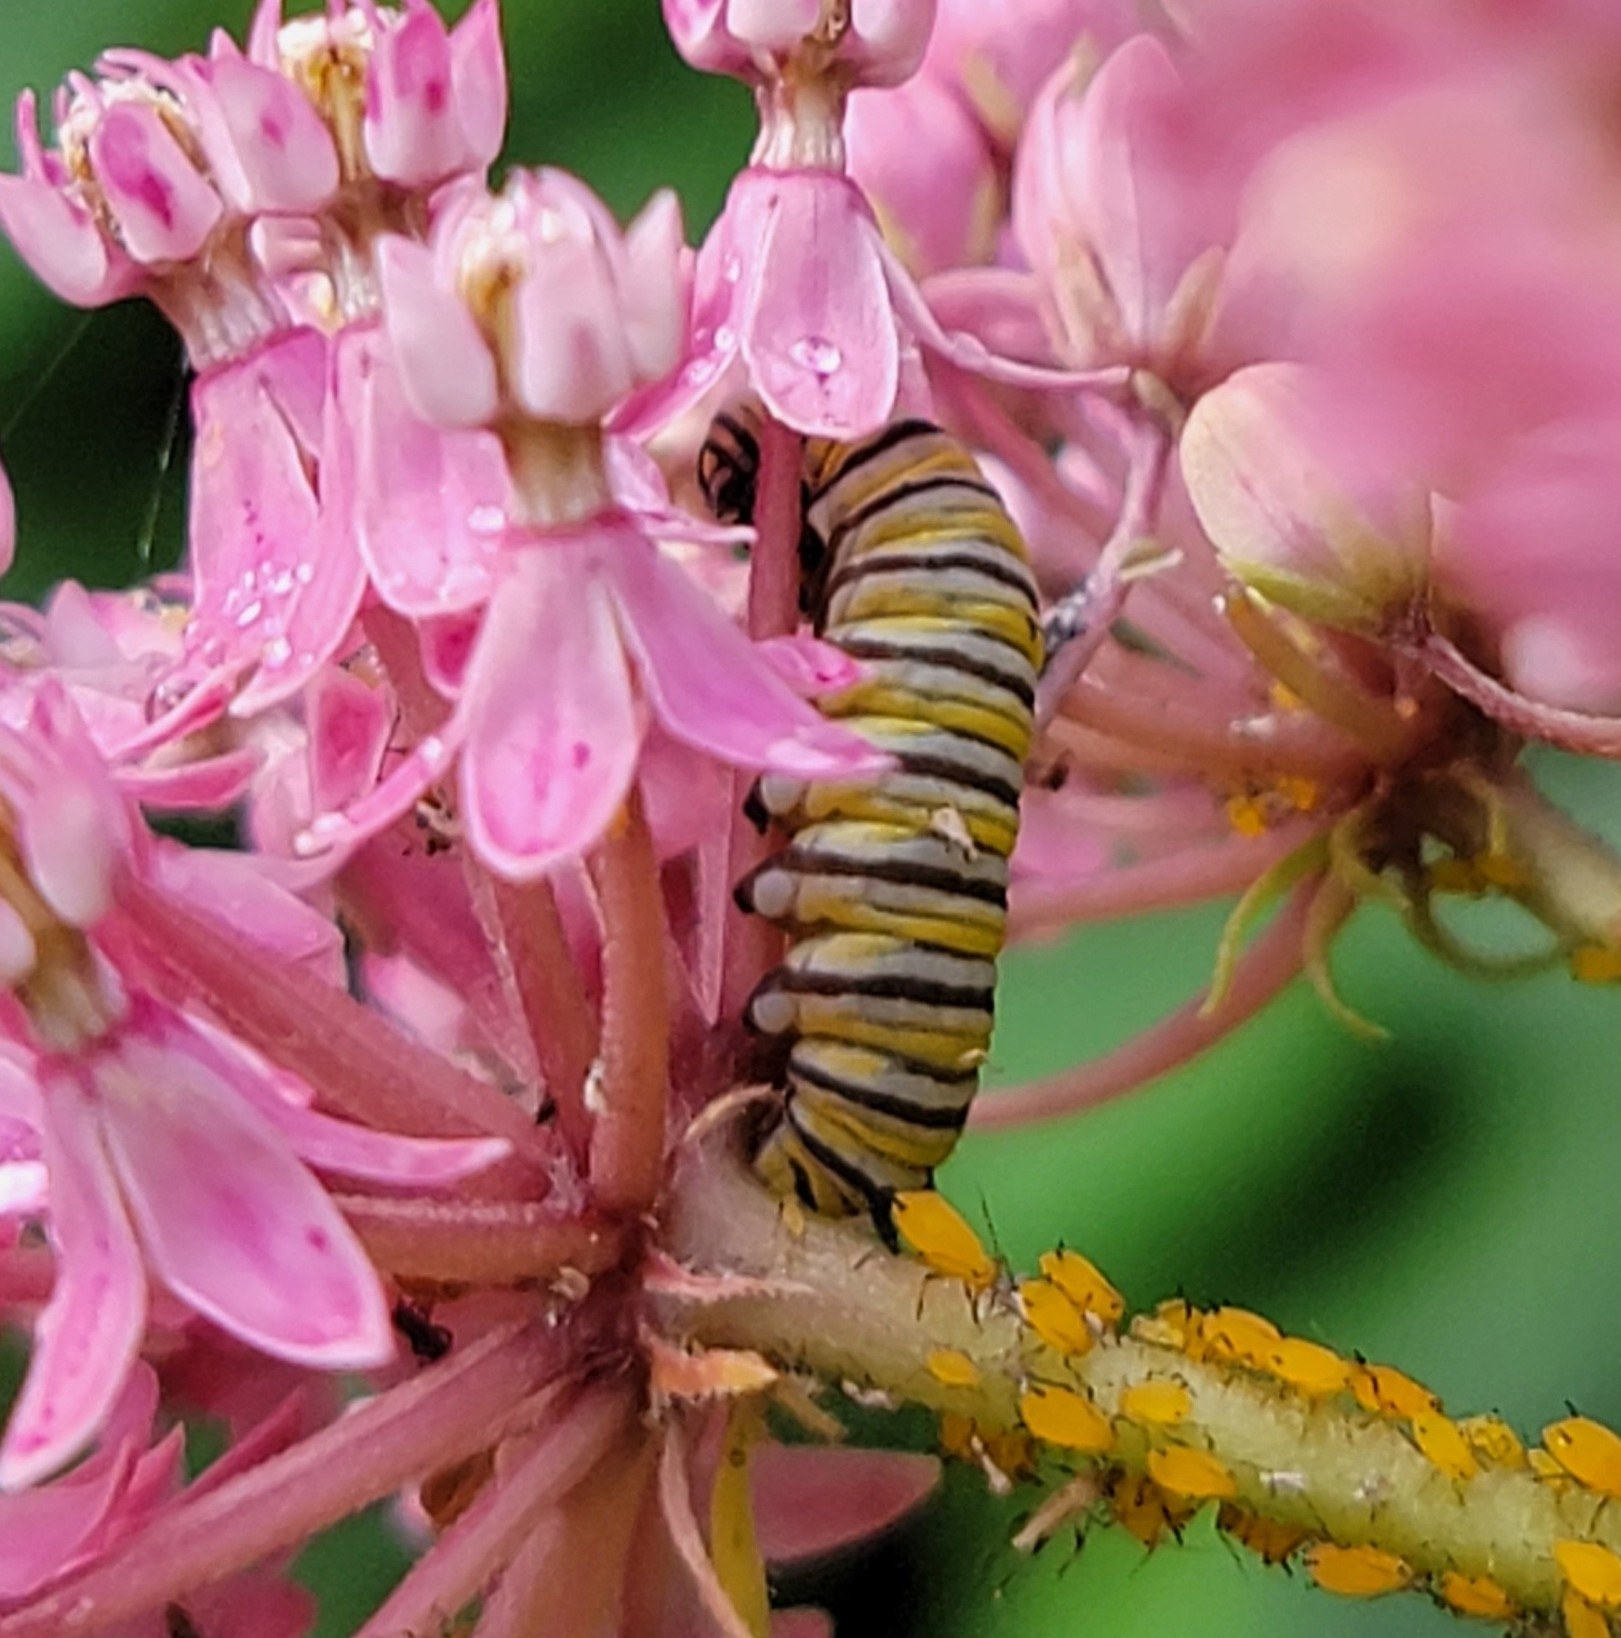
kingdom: Animalia
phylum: Arthropoda
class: Insecta
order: Lepidoptera
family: Nymphalidae
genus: Danaus
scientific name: Danaus plexippus
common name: Monarch
